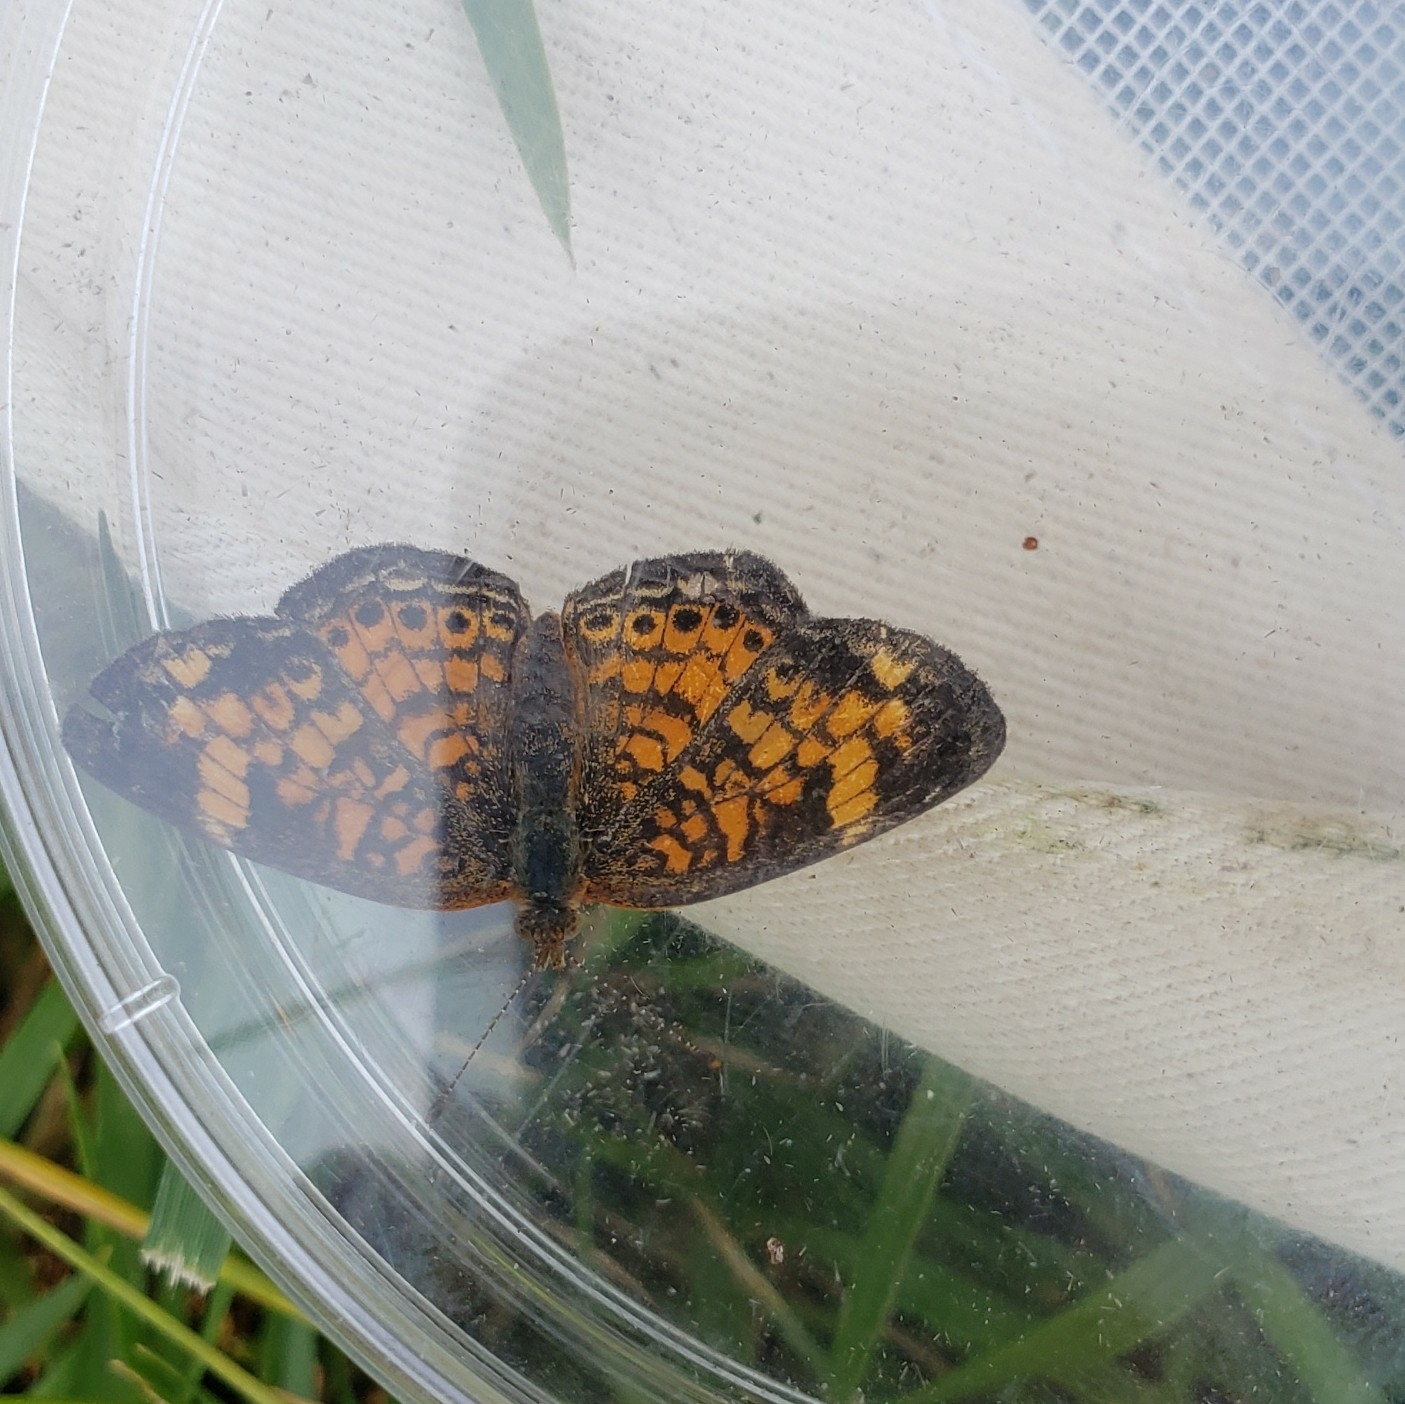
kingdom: Animalia
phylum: Arthropoda
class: Insecta
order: Lepidoptera
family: Nymphalidae
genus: Phyciodes
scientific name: Phyciodes tharos
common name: Pearl crescent
